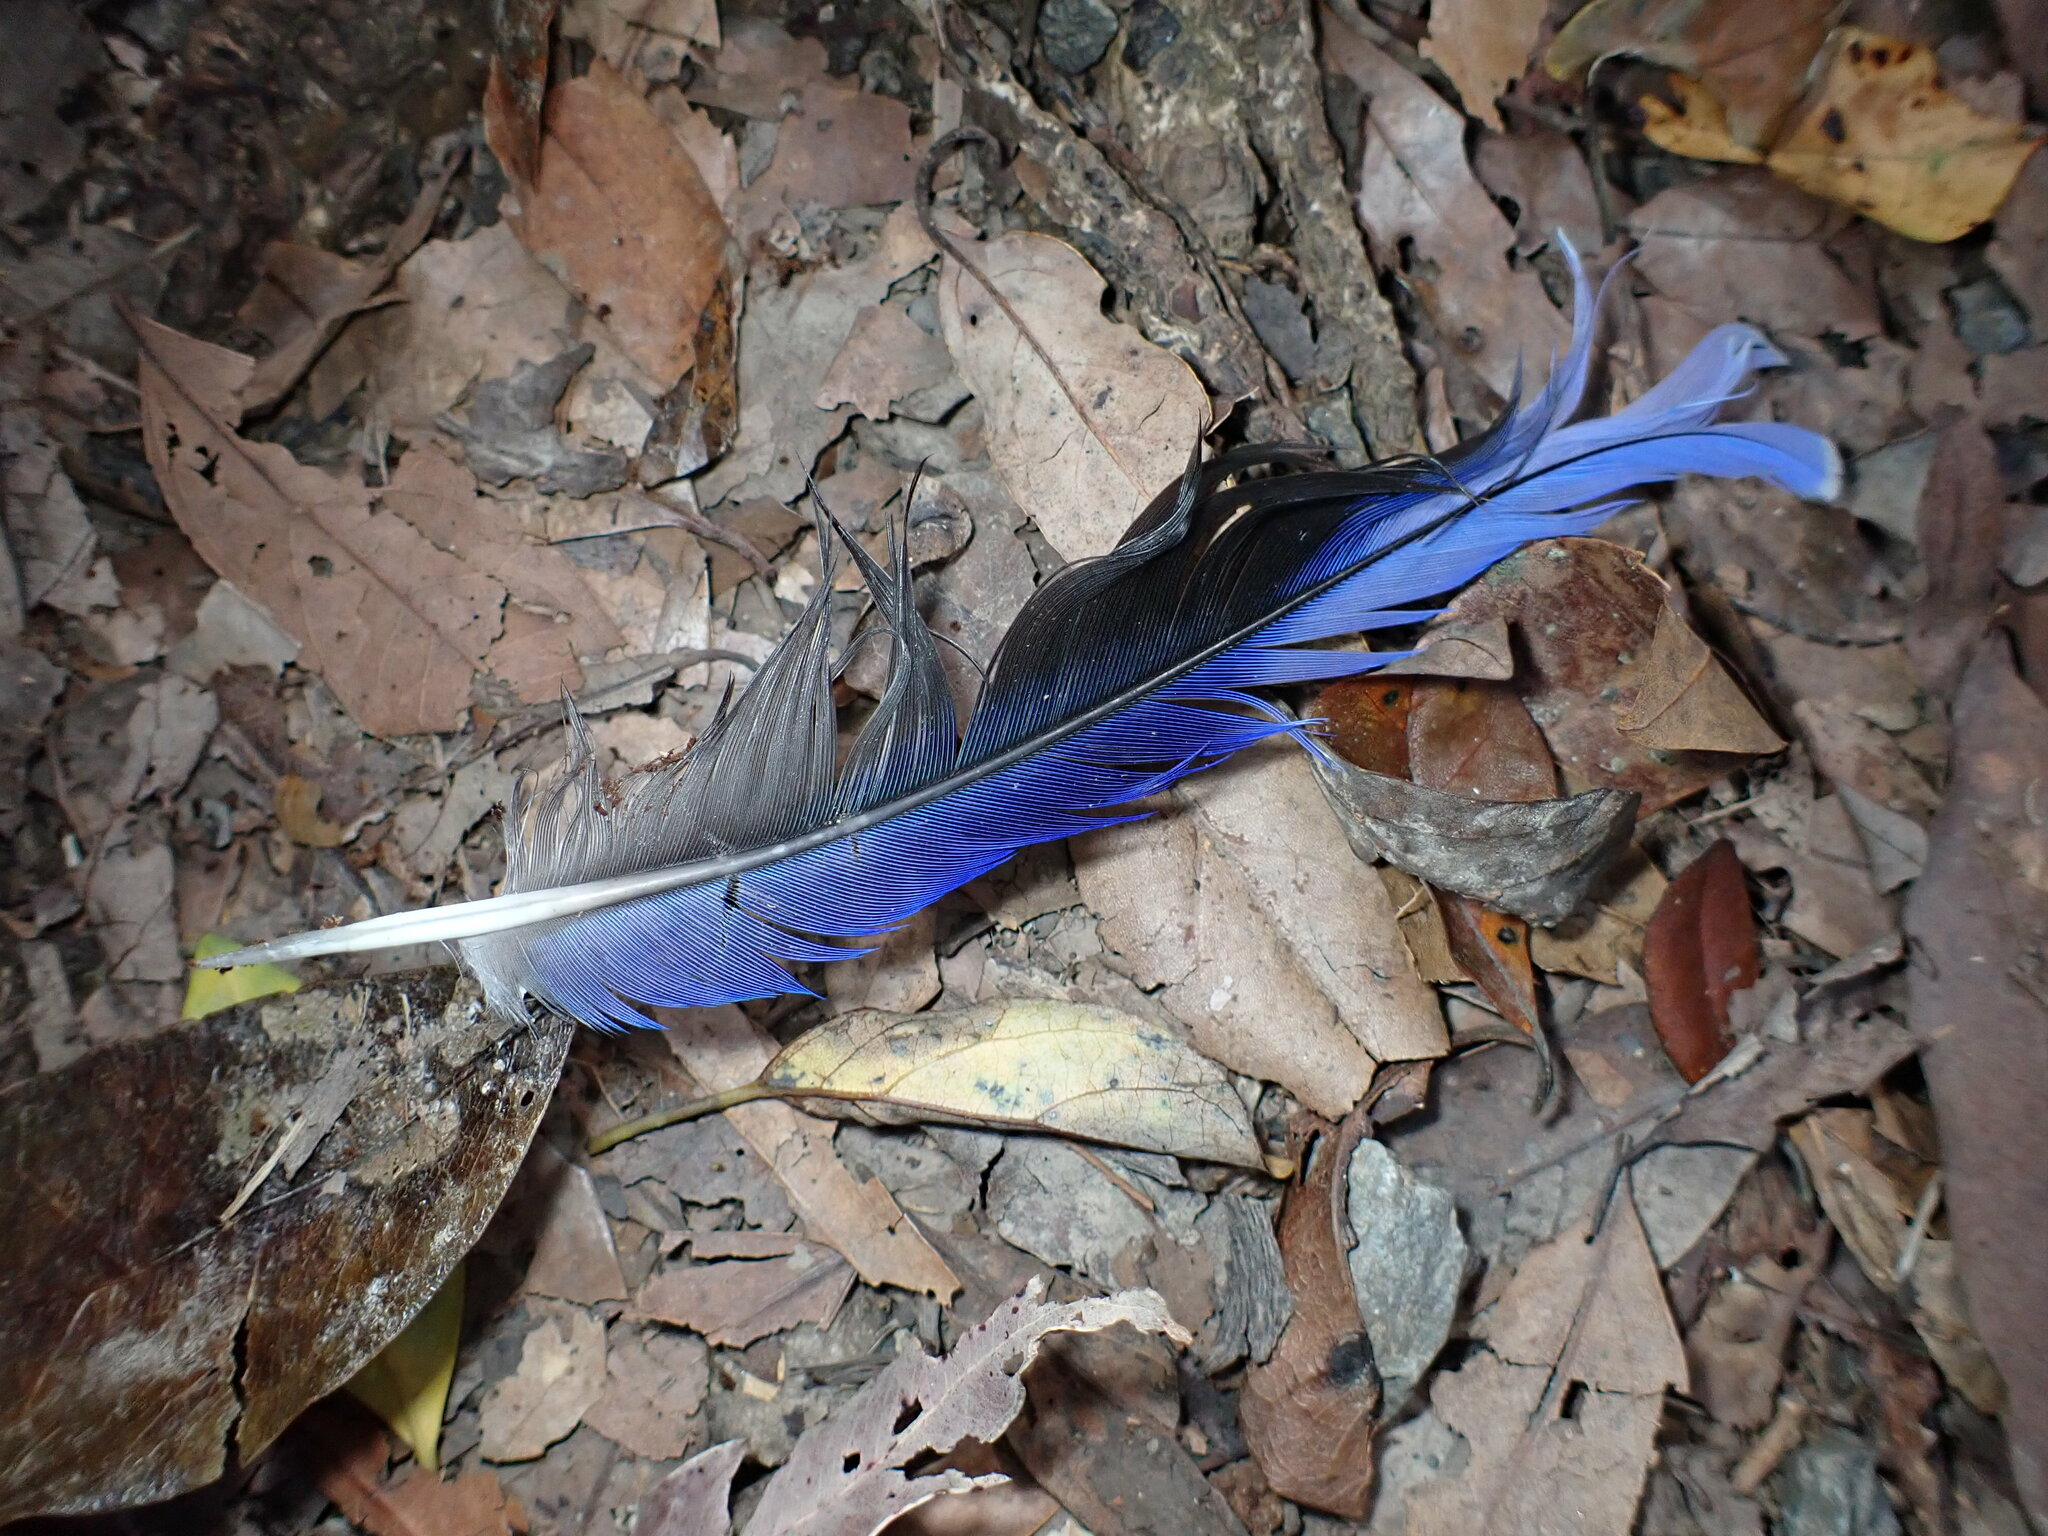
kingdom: Animalia
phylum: Chordata
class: Aves
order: Psittaciformes
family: Psittacidae
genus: Platycercus
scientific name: Platycercus elegans
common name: Crimson rosella
